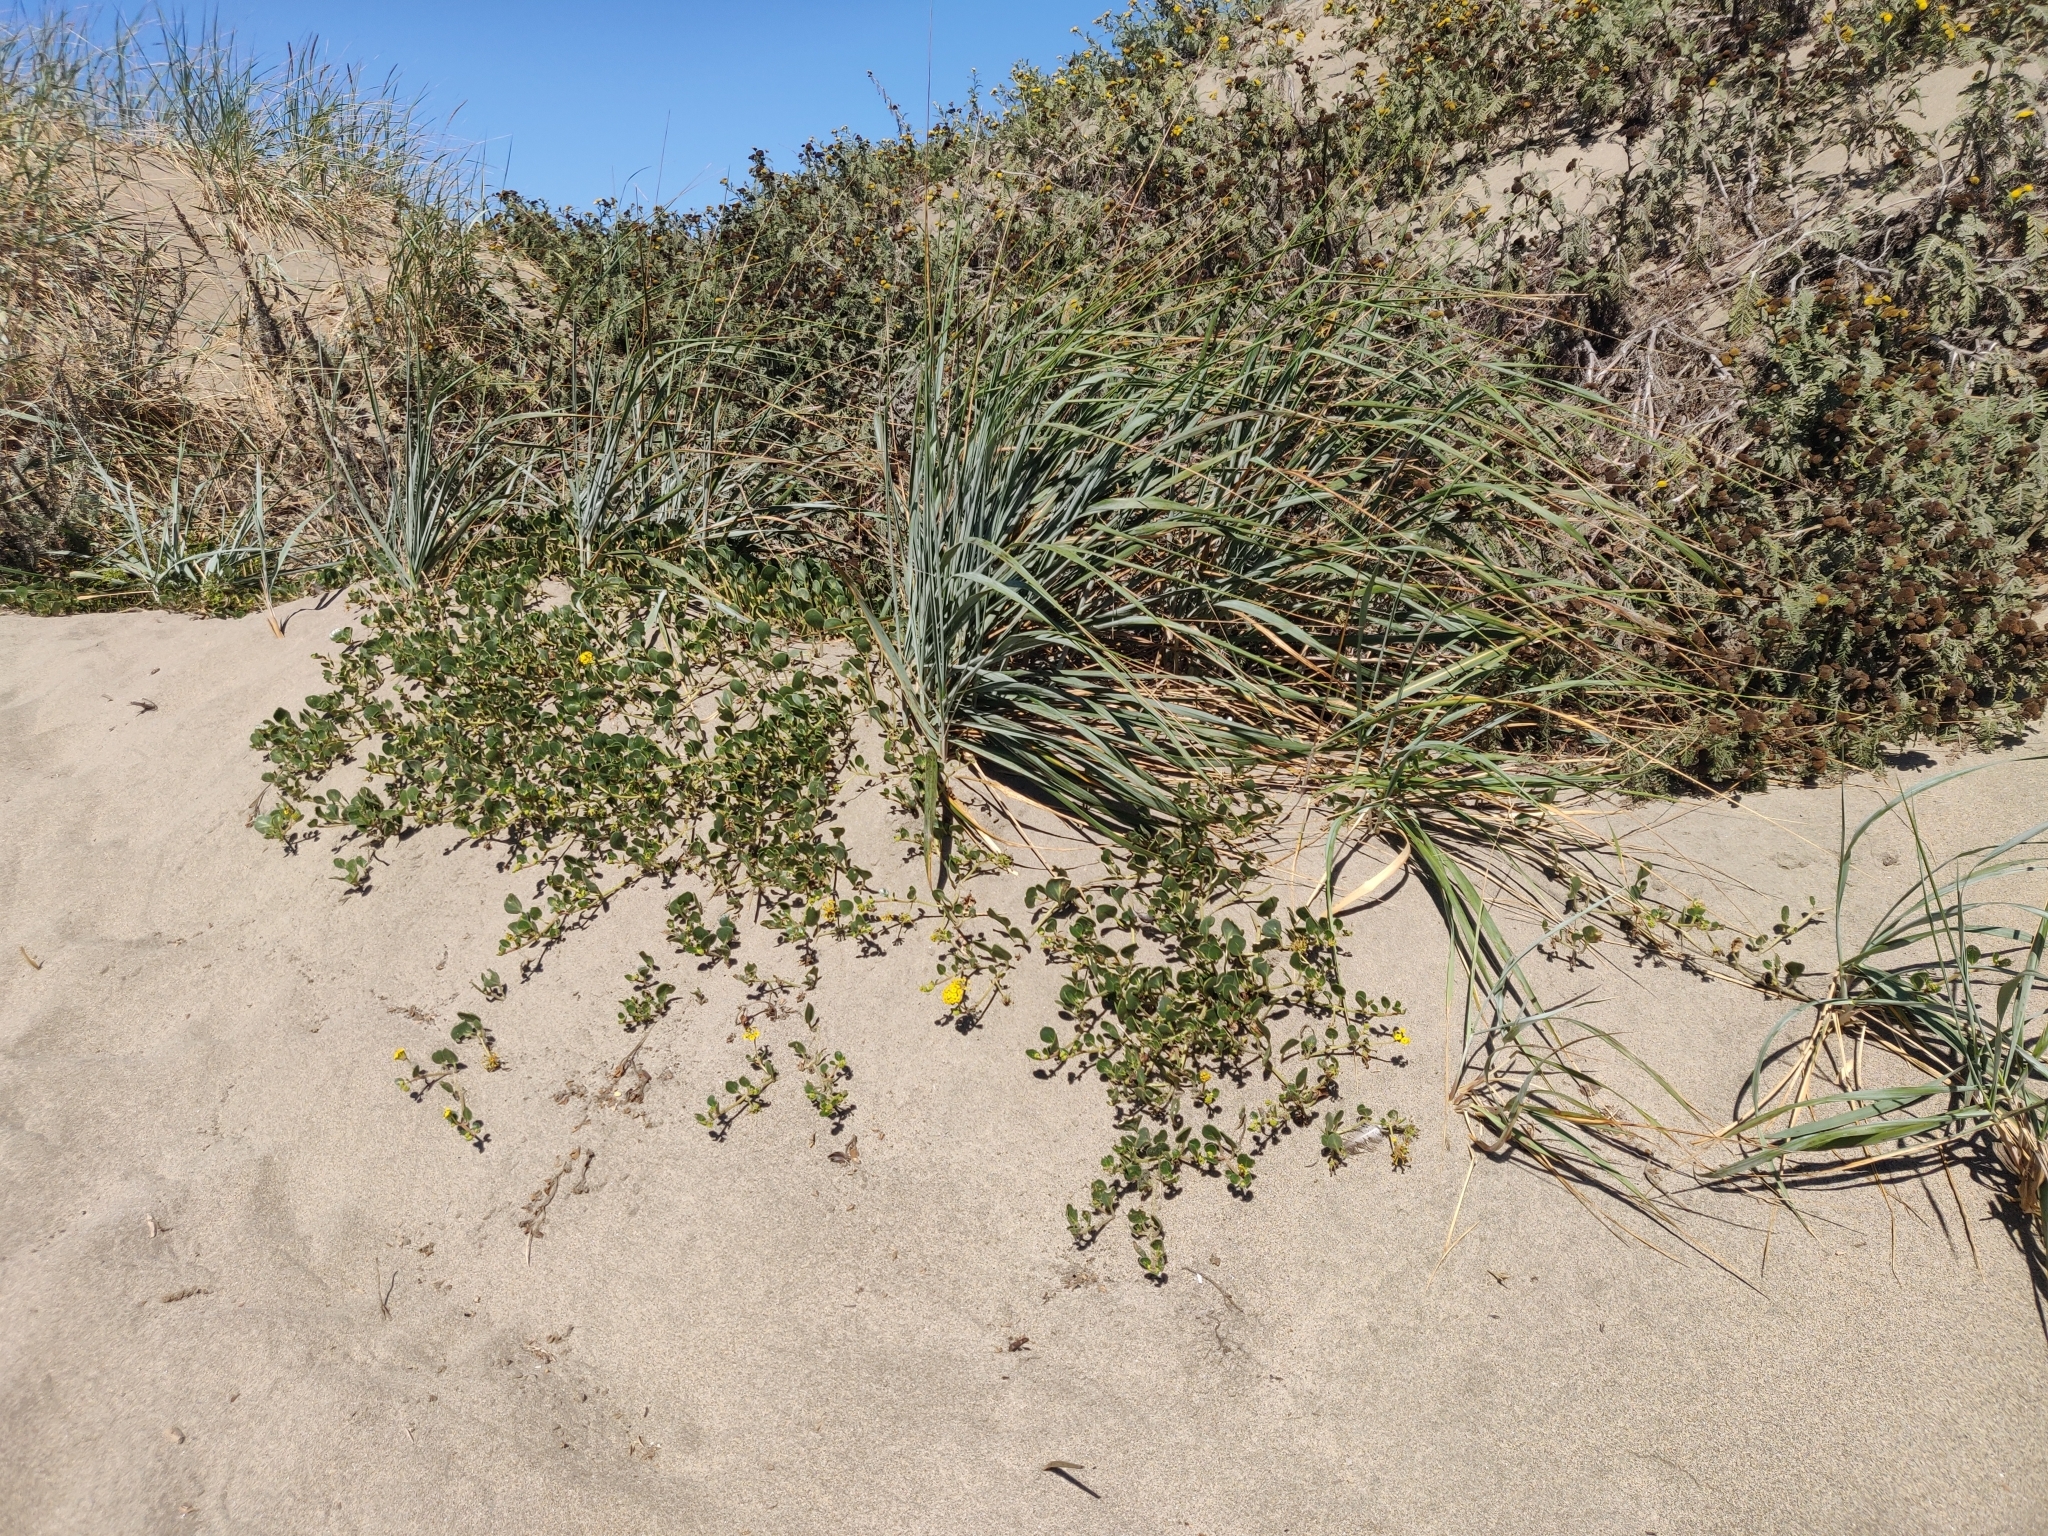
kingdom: Plantae
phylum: Tracheophyta
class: Liliopsida
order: Poales
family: Poaceae
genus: Leymus
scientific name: Leymus mollis
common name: American dune grass
